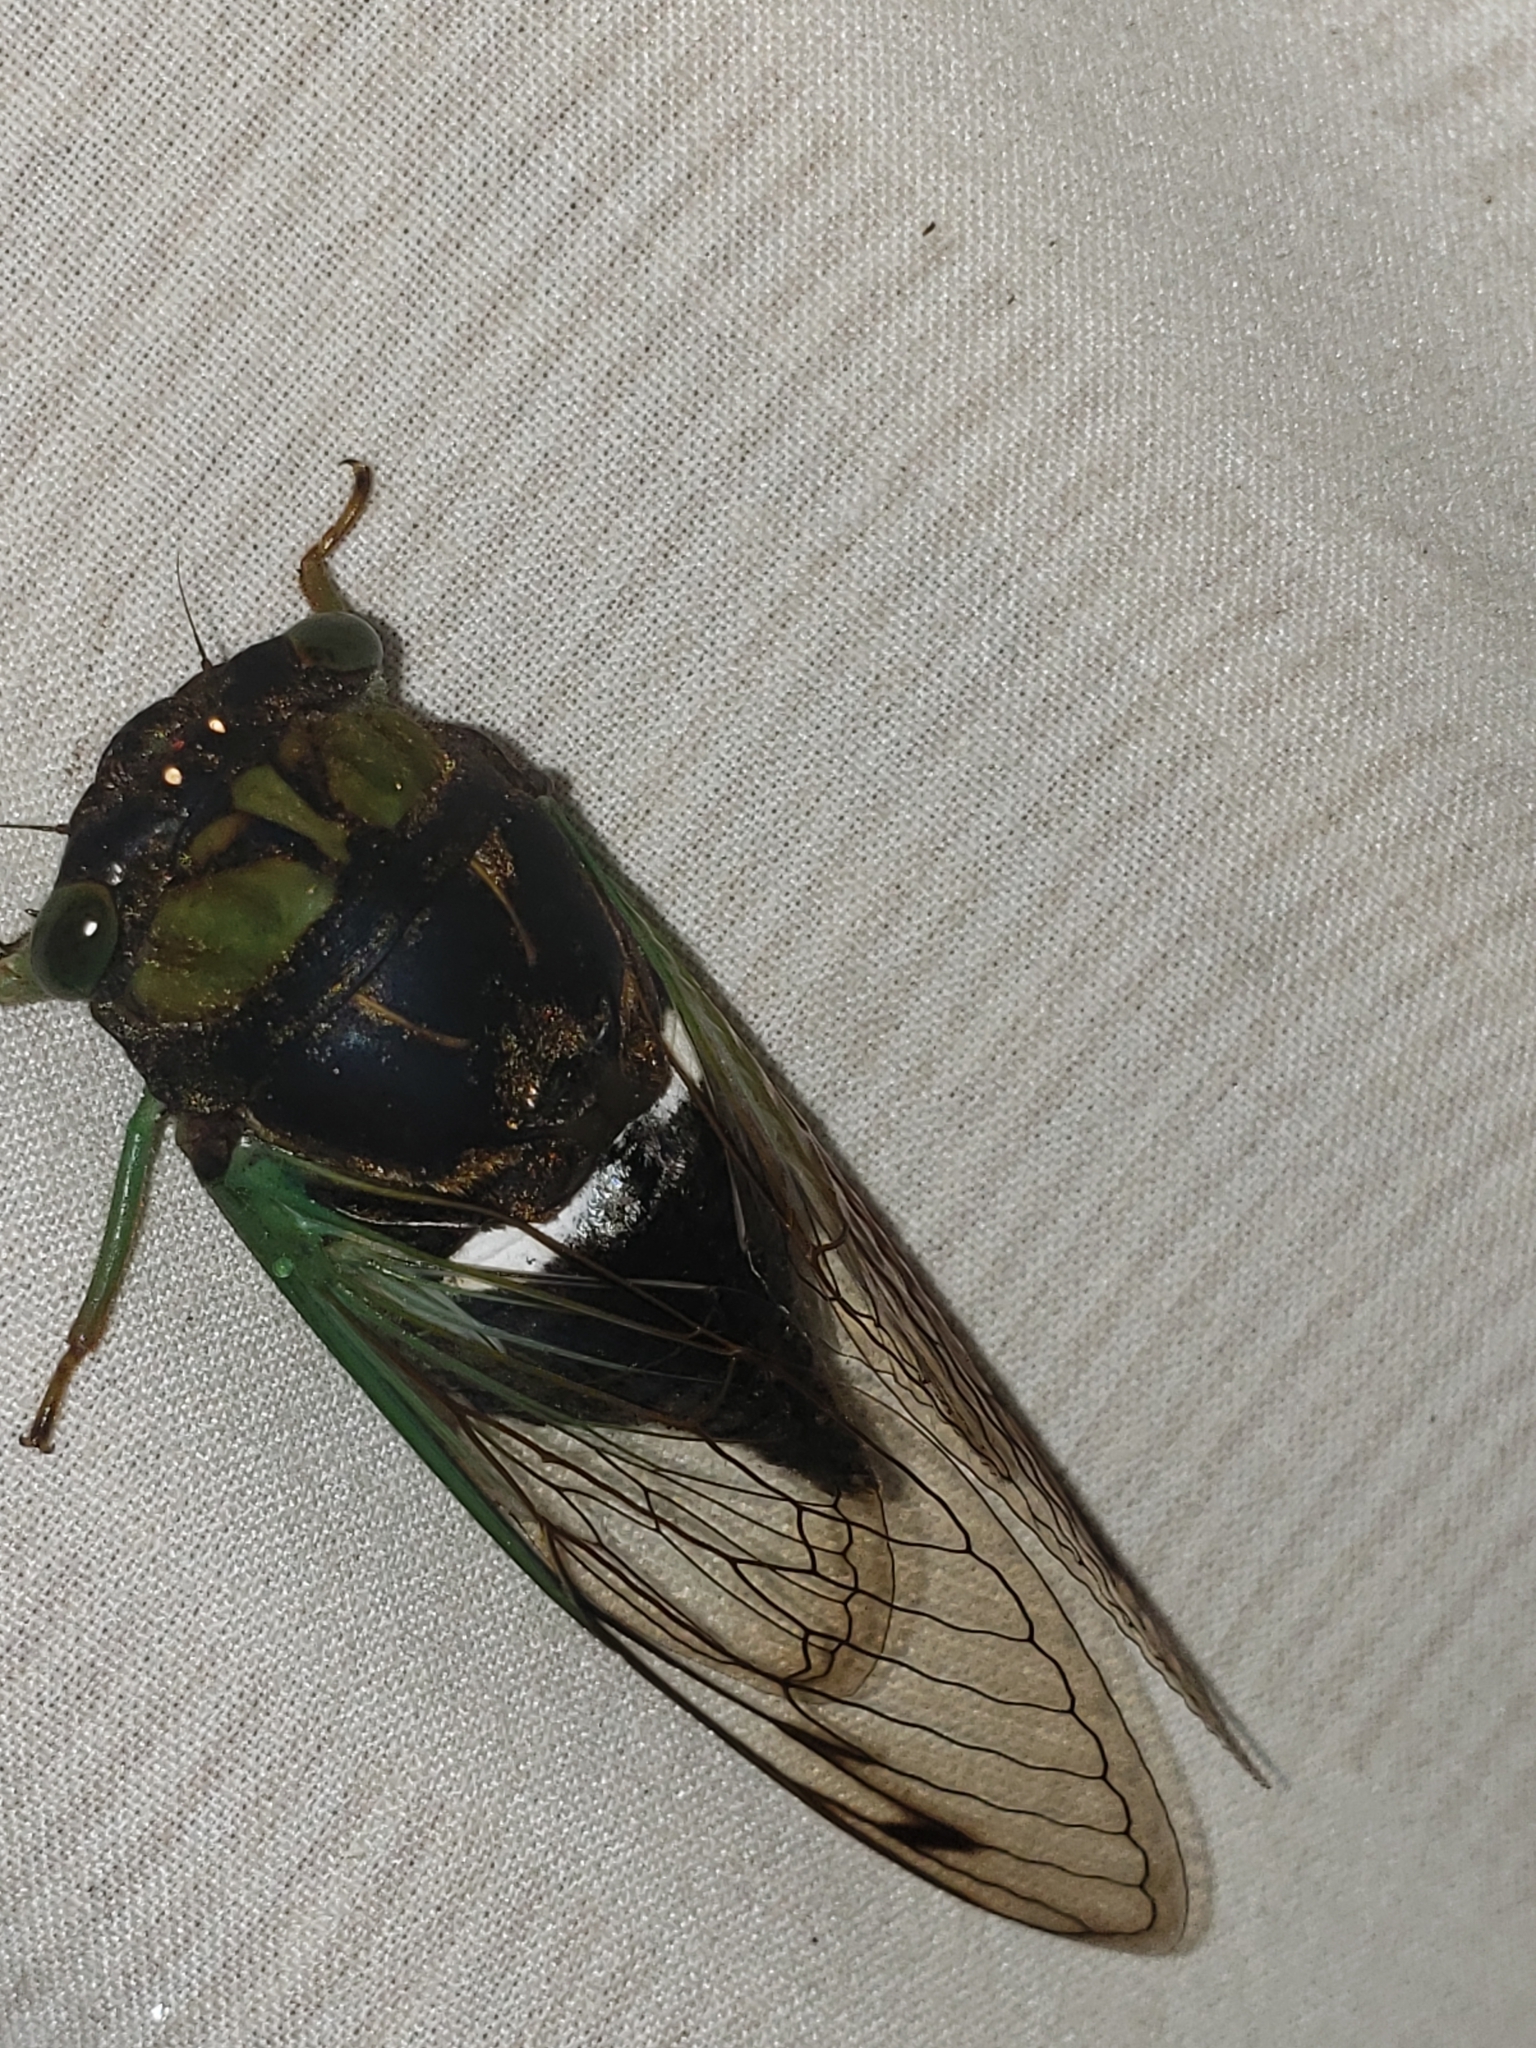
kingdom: Animalia
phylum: Arthropoda
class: Insecta
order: Hemiptera
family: Cicadidae
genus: Neotibicen
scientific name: Neotibicen tibicen
